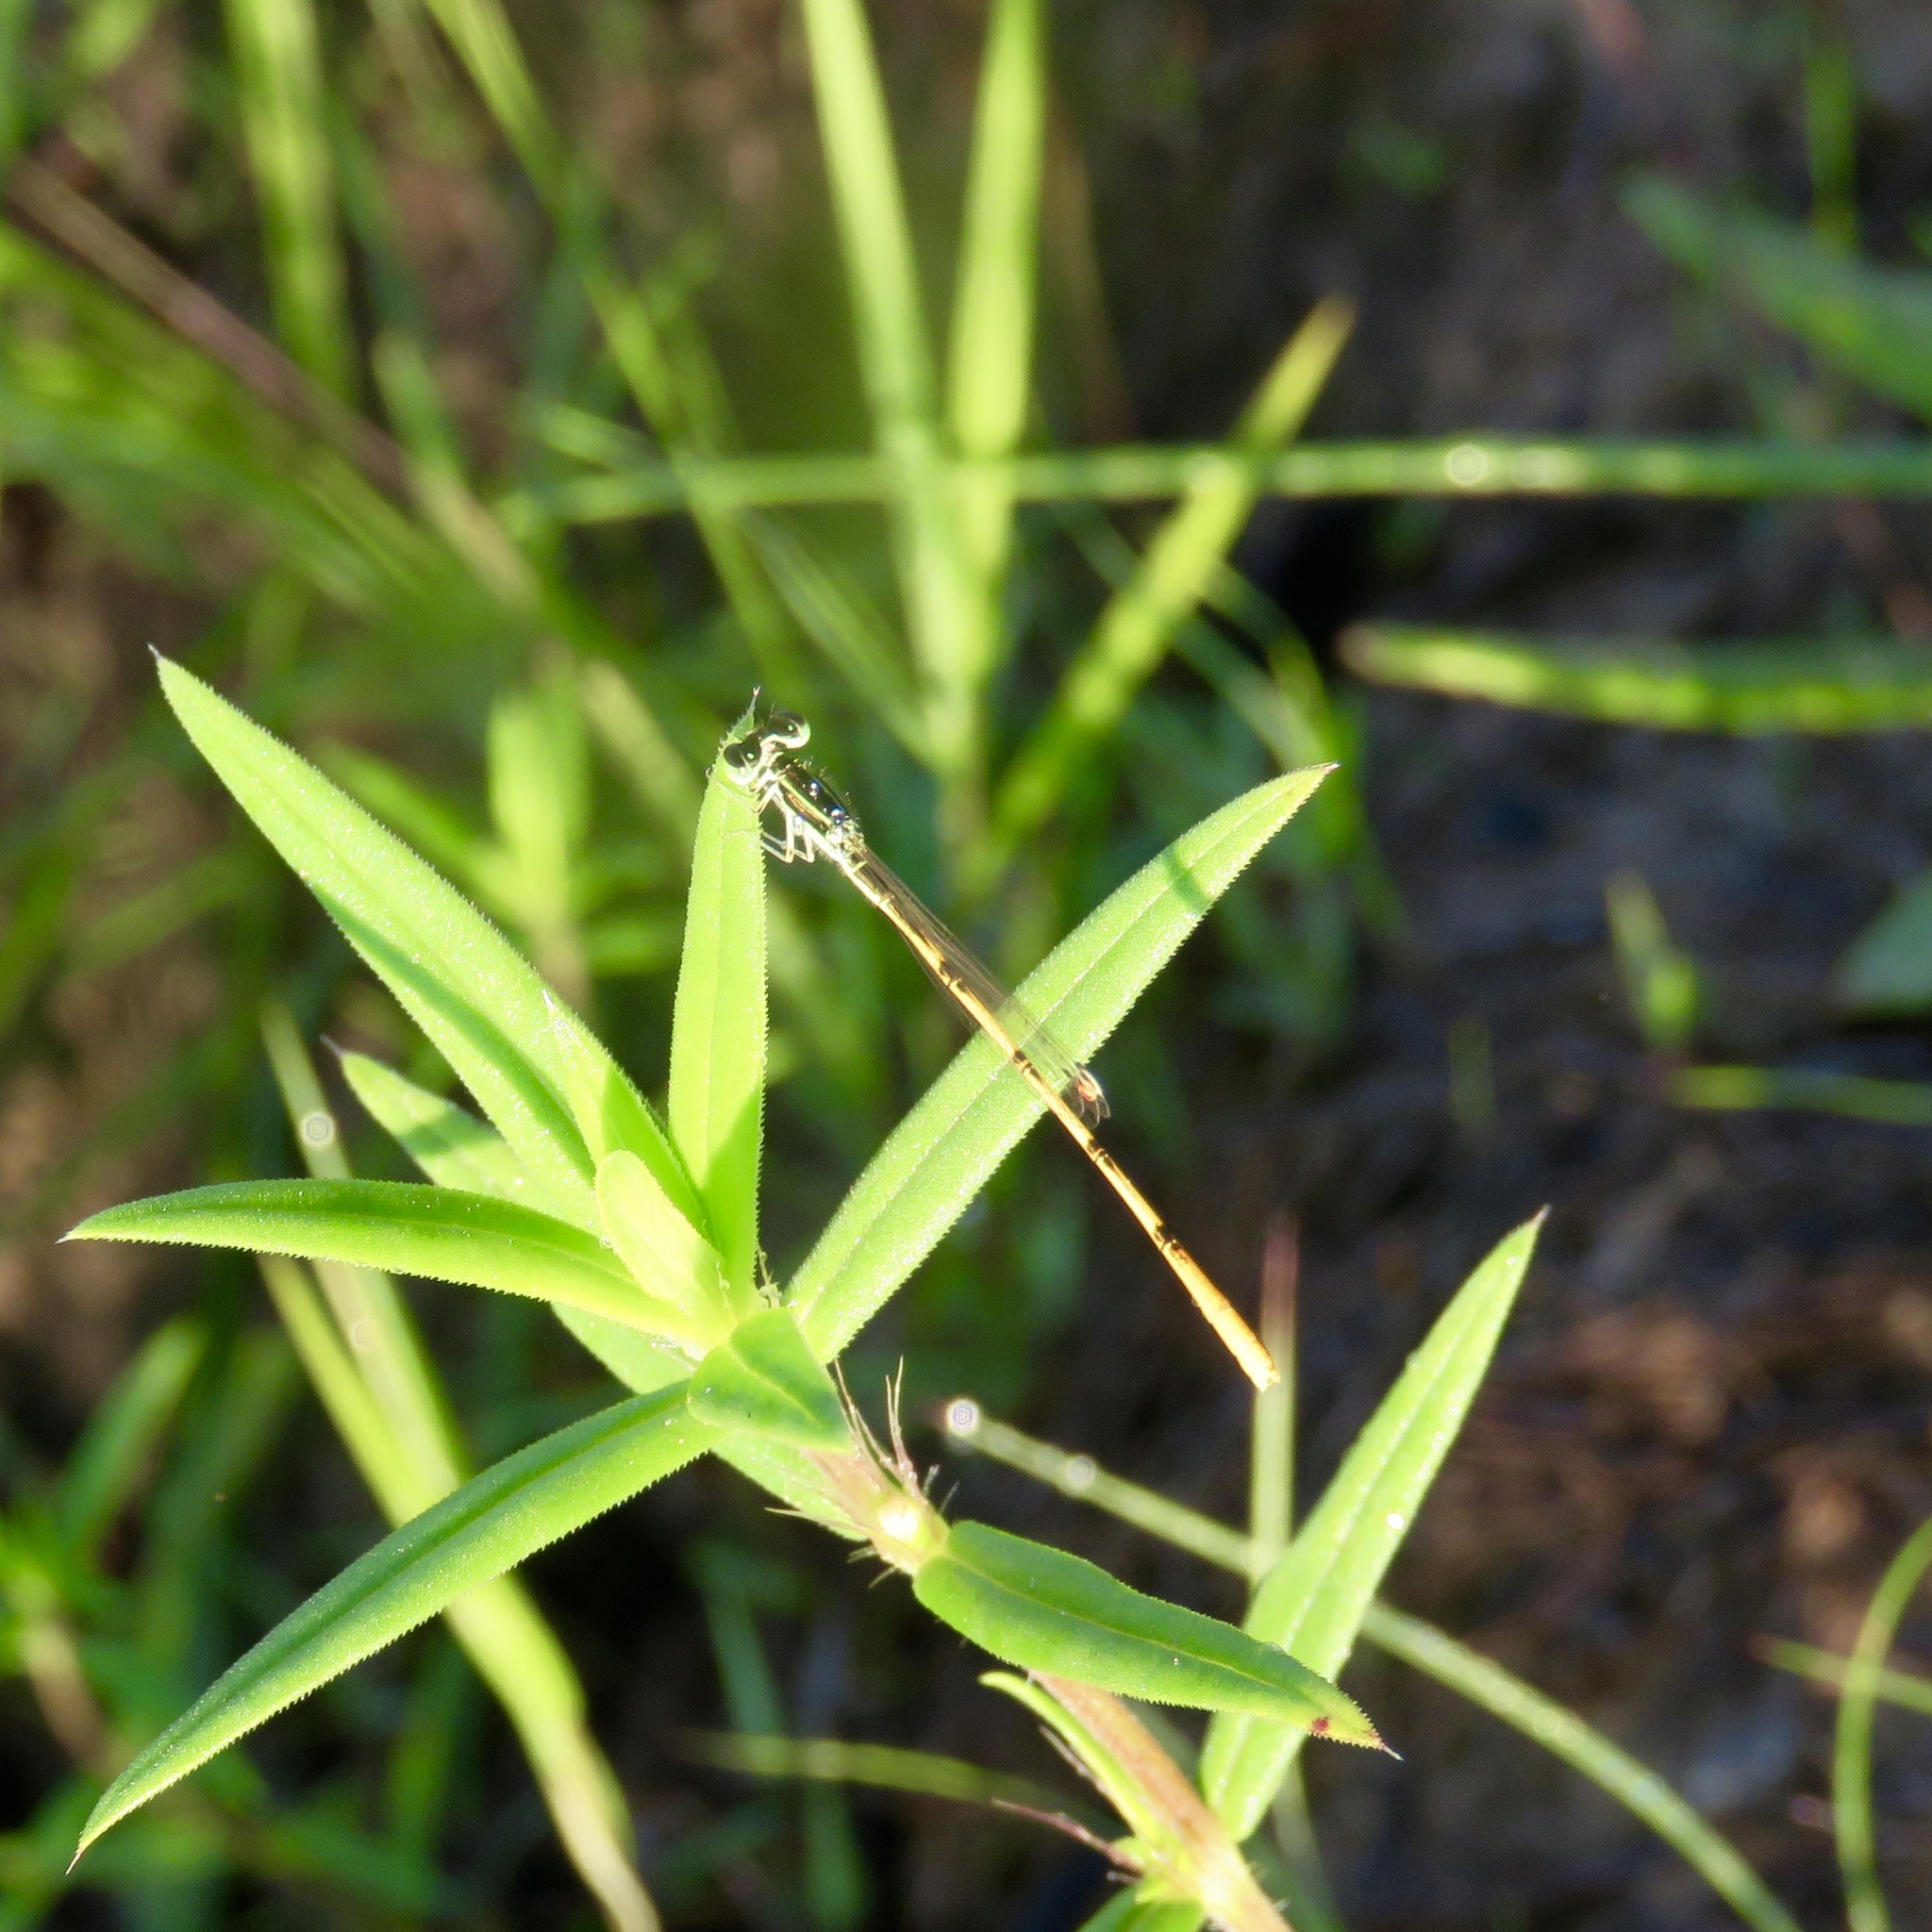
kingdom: Animalia
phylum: Arthropoda
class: Insecta
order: Odonata
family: Coenagrionidae
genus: Ischnura
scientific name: Ischnura hastata
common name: Citrine forktail
